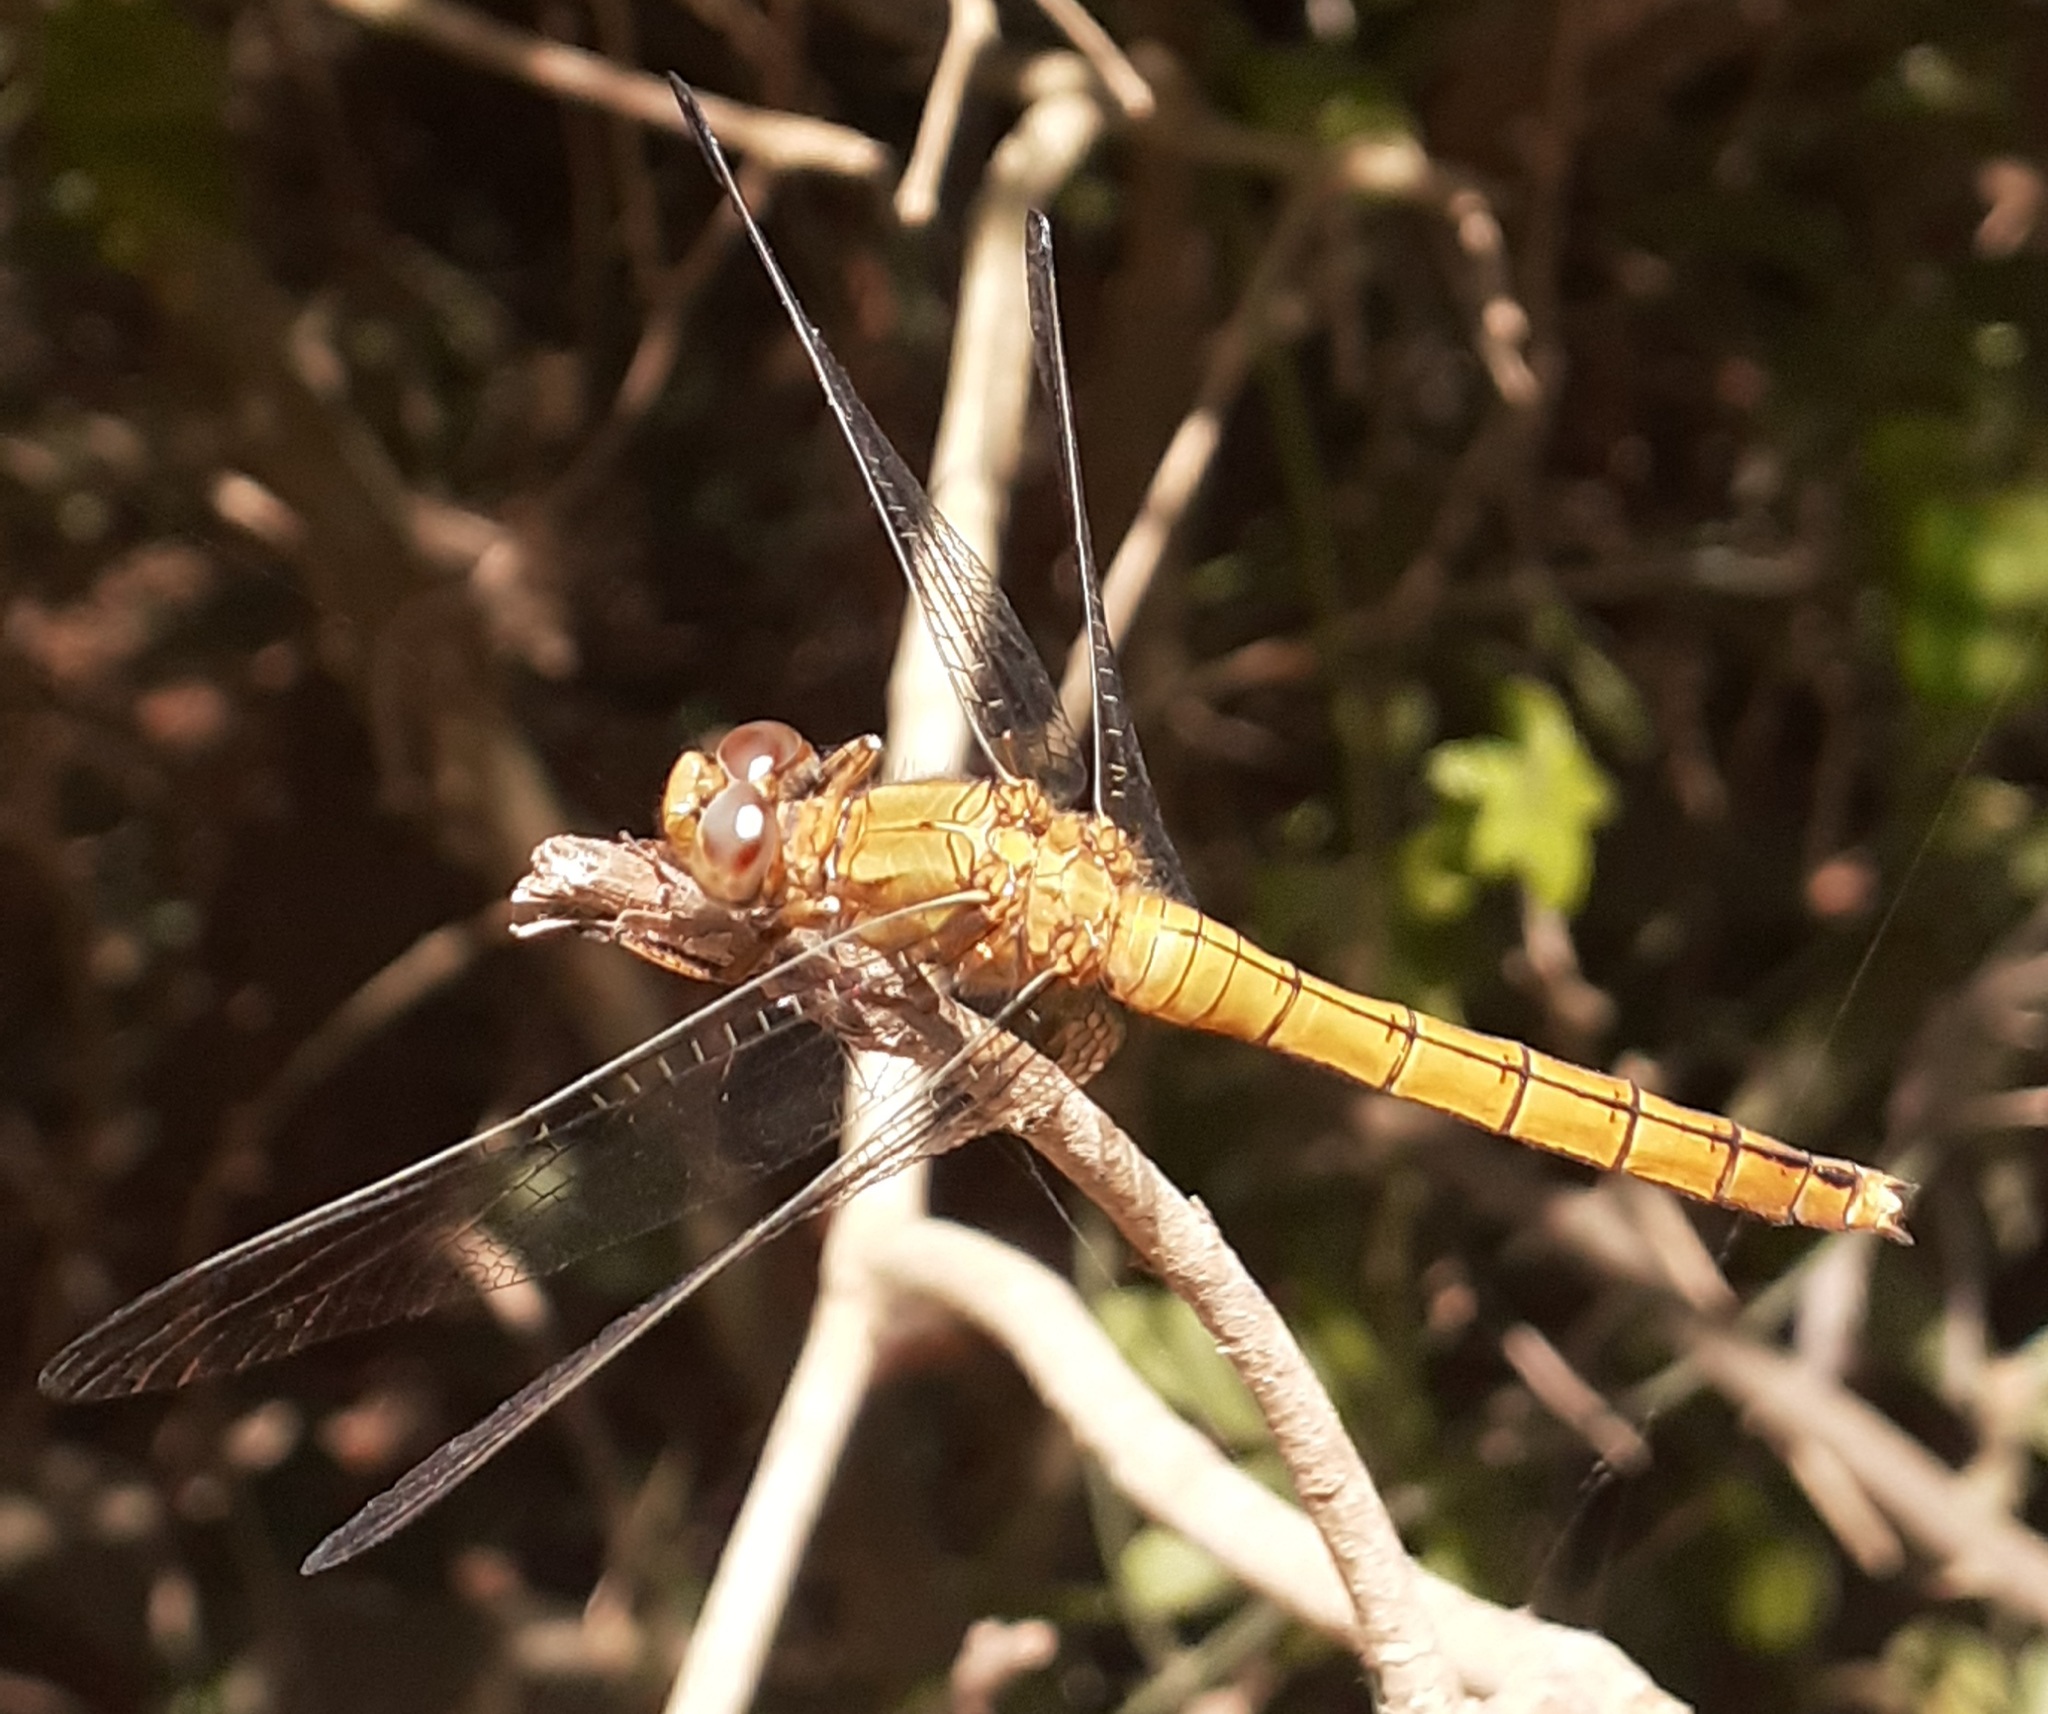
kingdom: Animalia
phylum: Arthropoda
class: Insecta
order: Odonata
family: Libellulidae
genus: Orthetrum
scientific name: Orthetrum coerulescens
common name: Keeled skimmer
